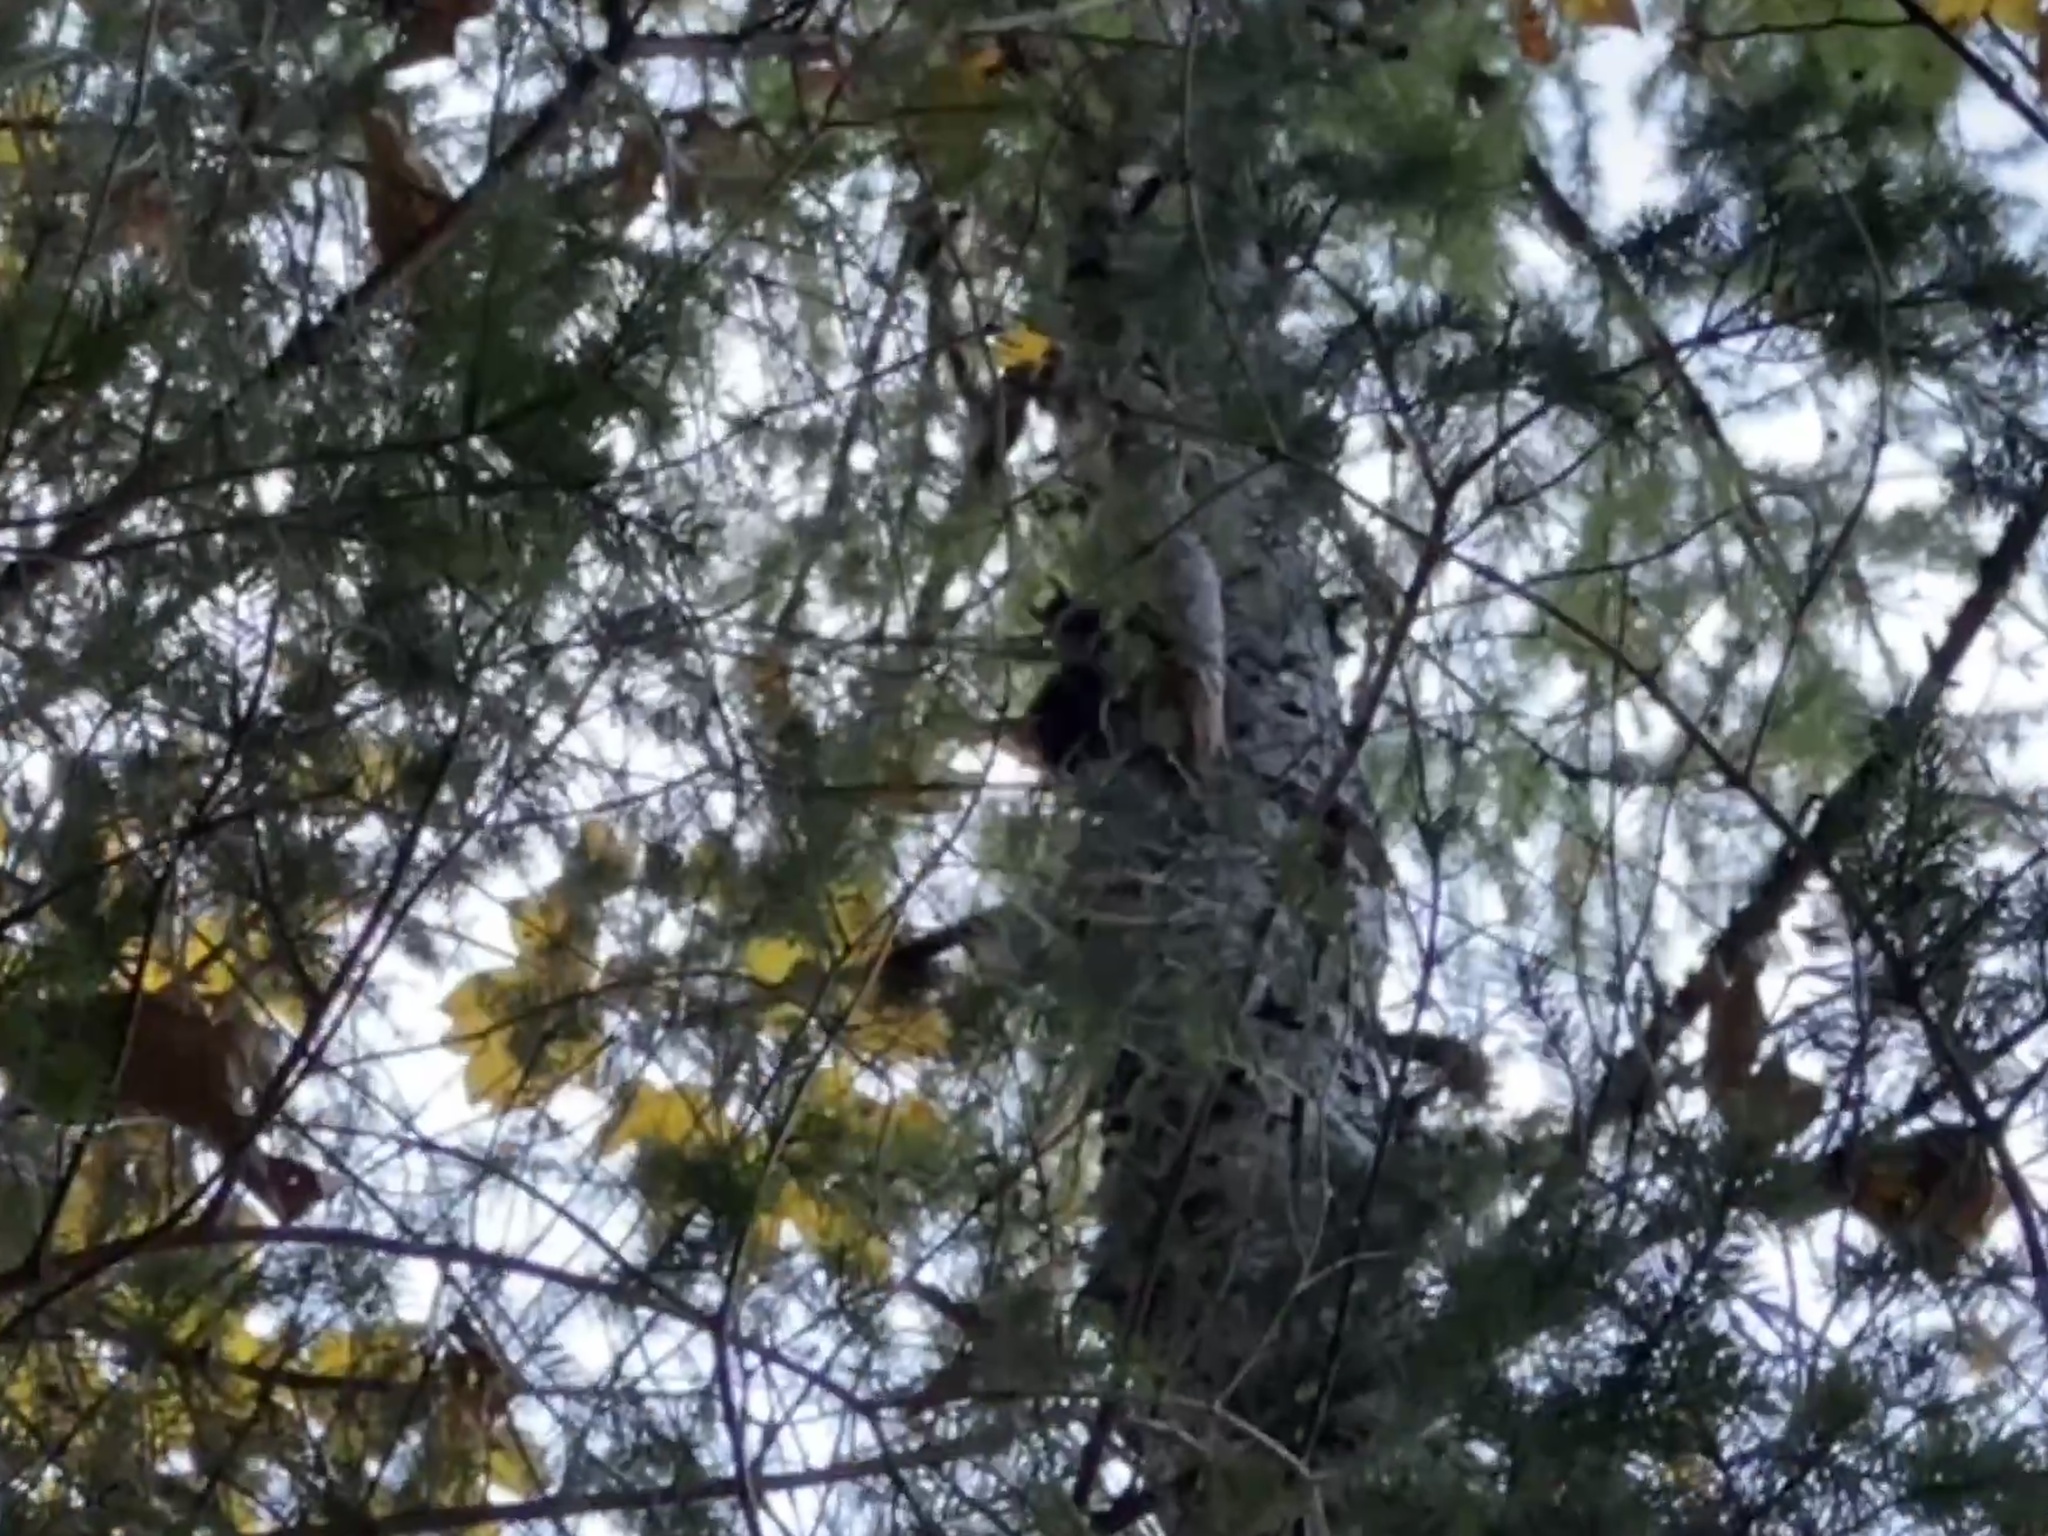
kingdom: Animalia
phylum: Chordata
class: Mammalia
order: Rodentia
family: Sciuridae
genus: Sciurus
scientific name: Sciurus vulgaris
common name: Eurasian red squirrel
